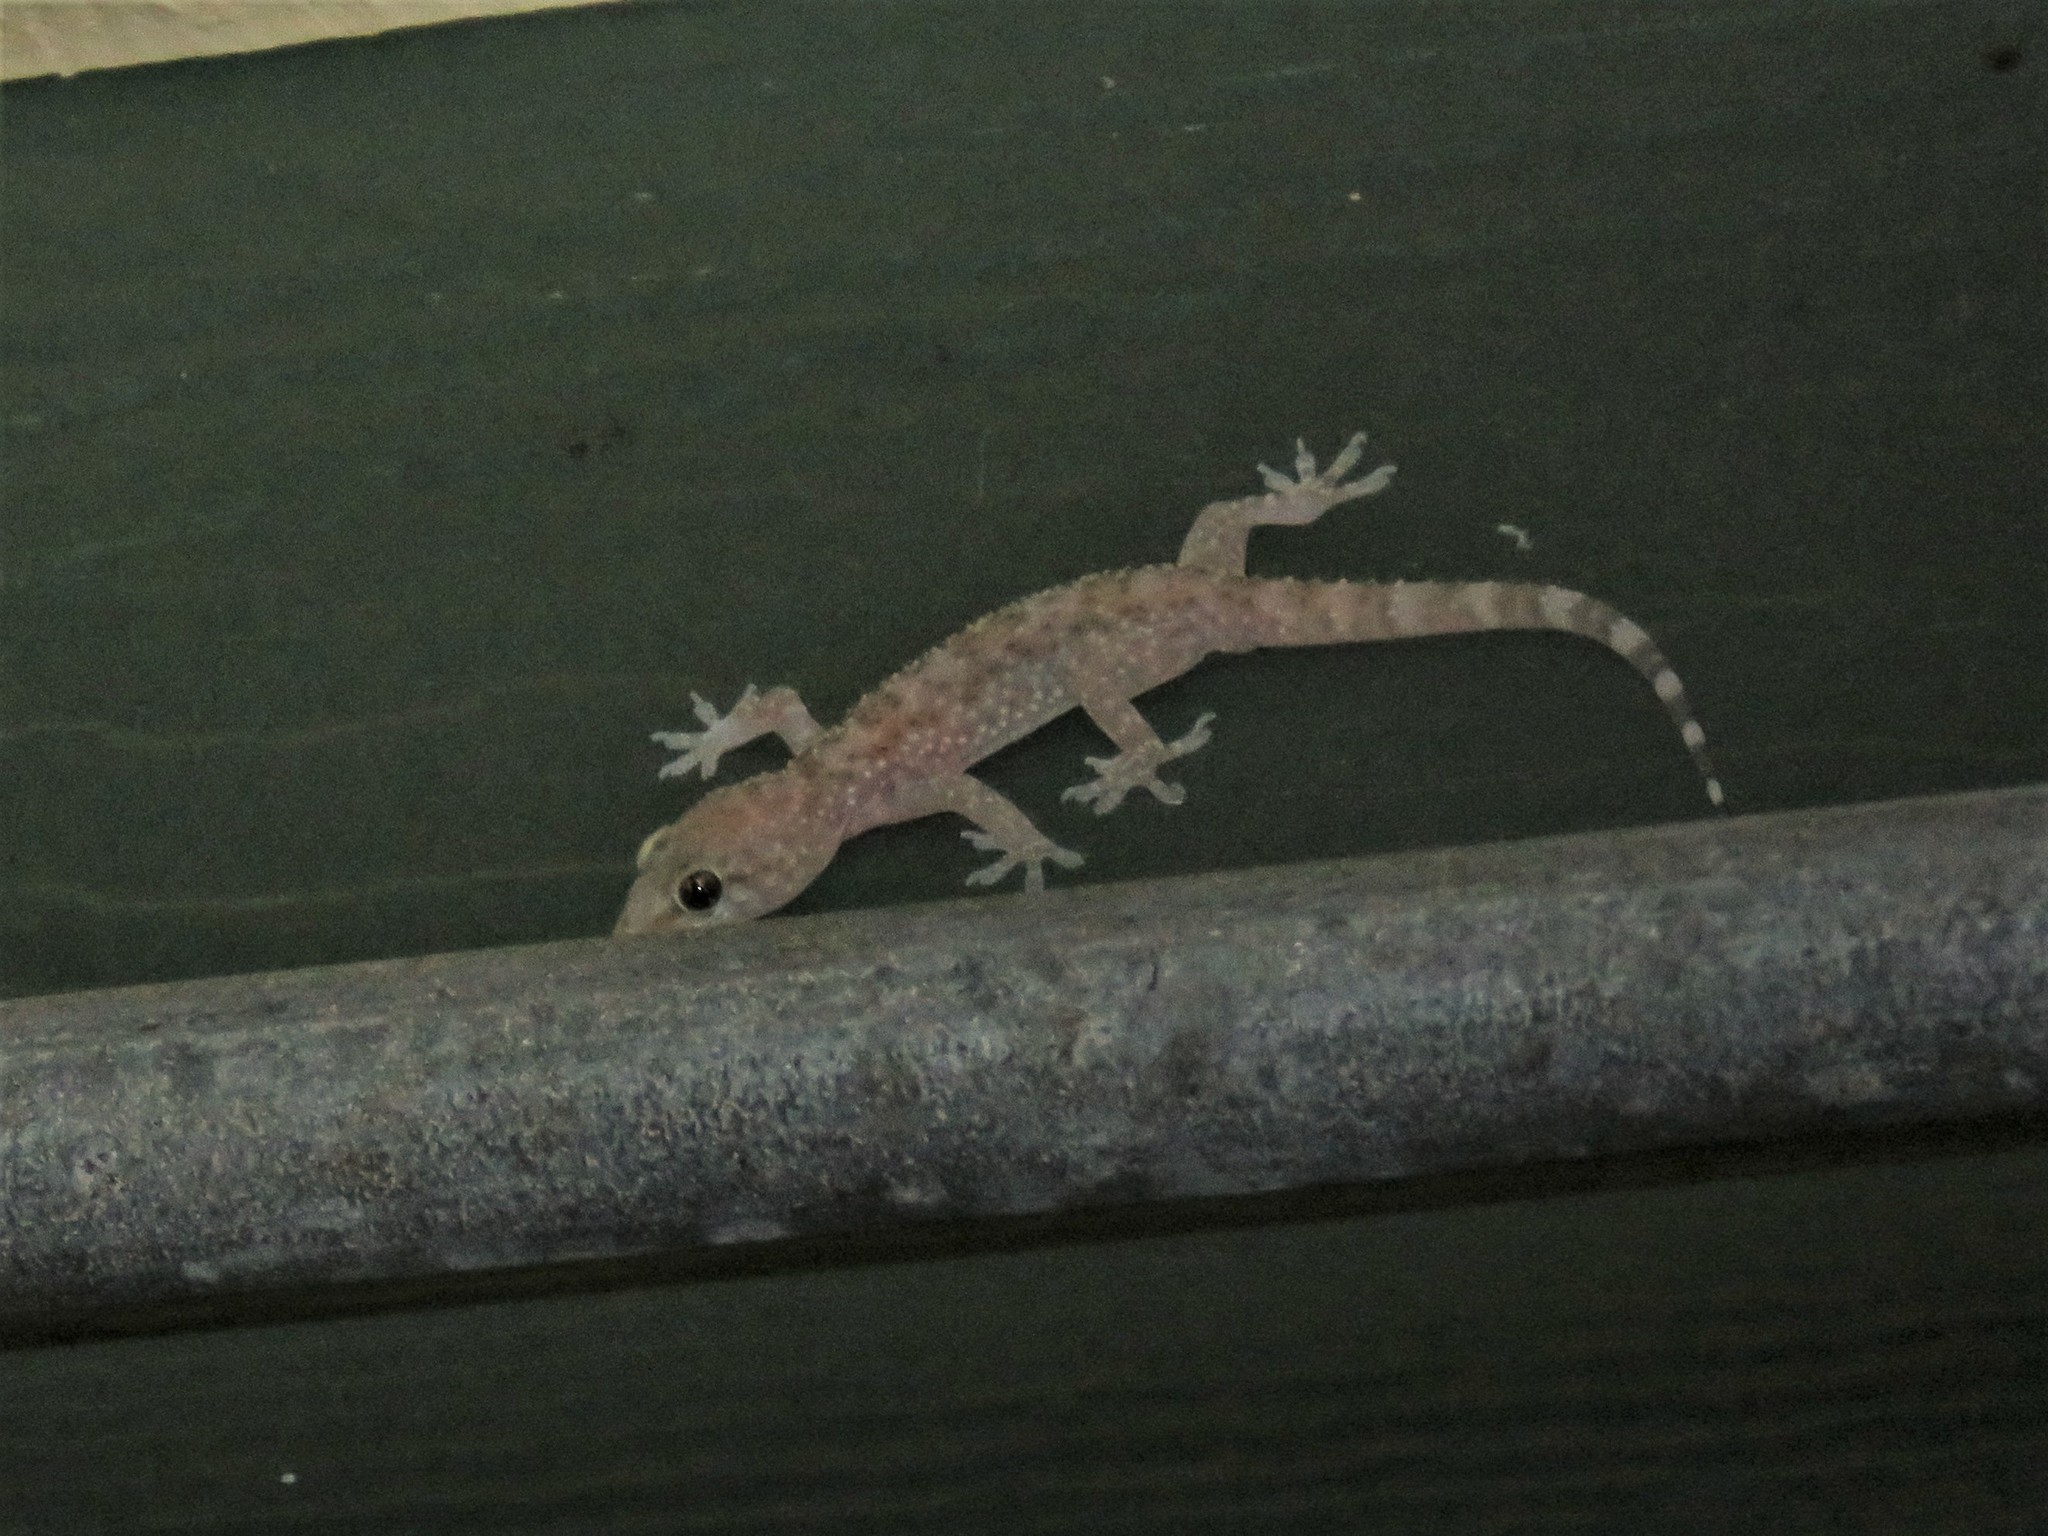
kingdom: Animalia
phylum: Chordata
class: Squamata
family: Gekkonidae
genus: Hemidactylus
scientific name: Hemidactylus turcicus
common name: Turkish gecko
